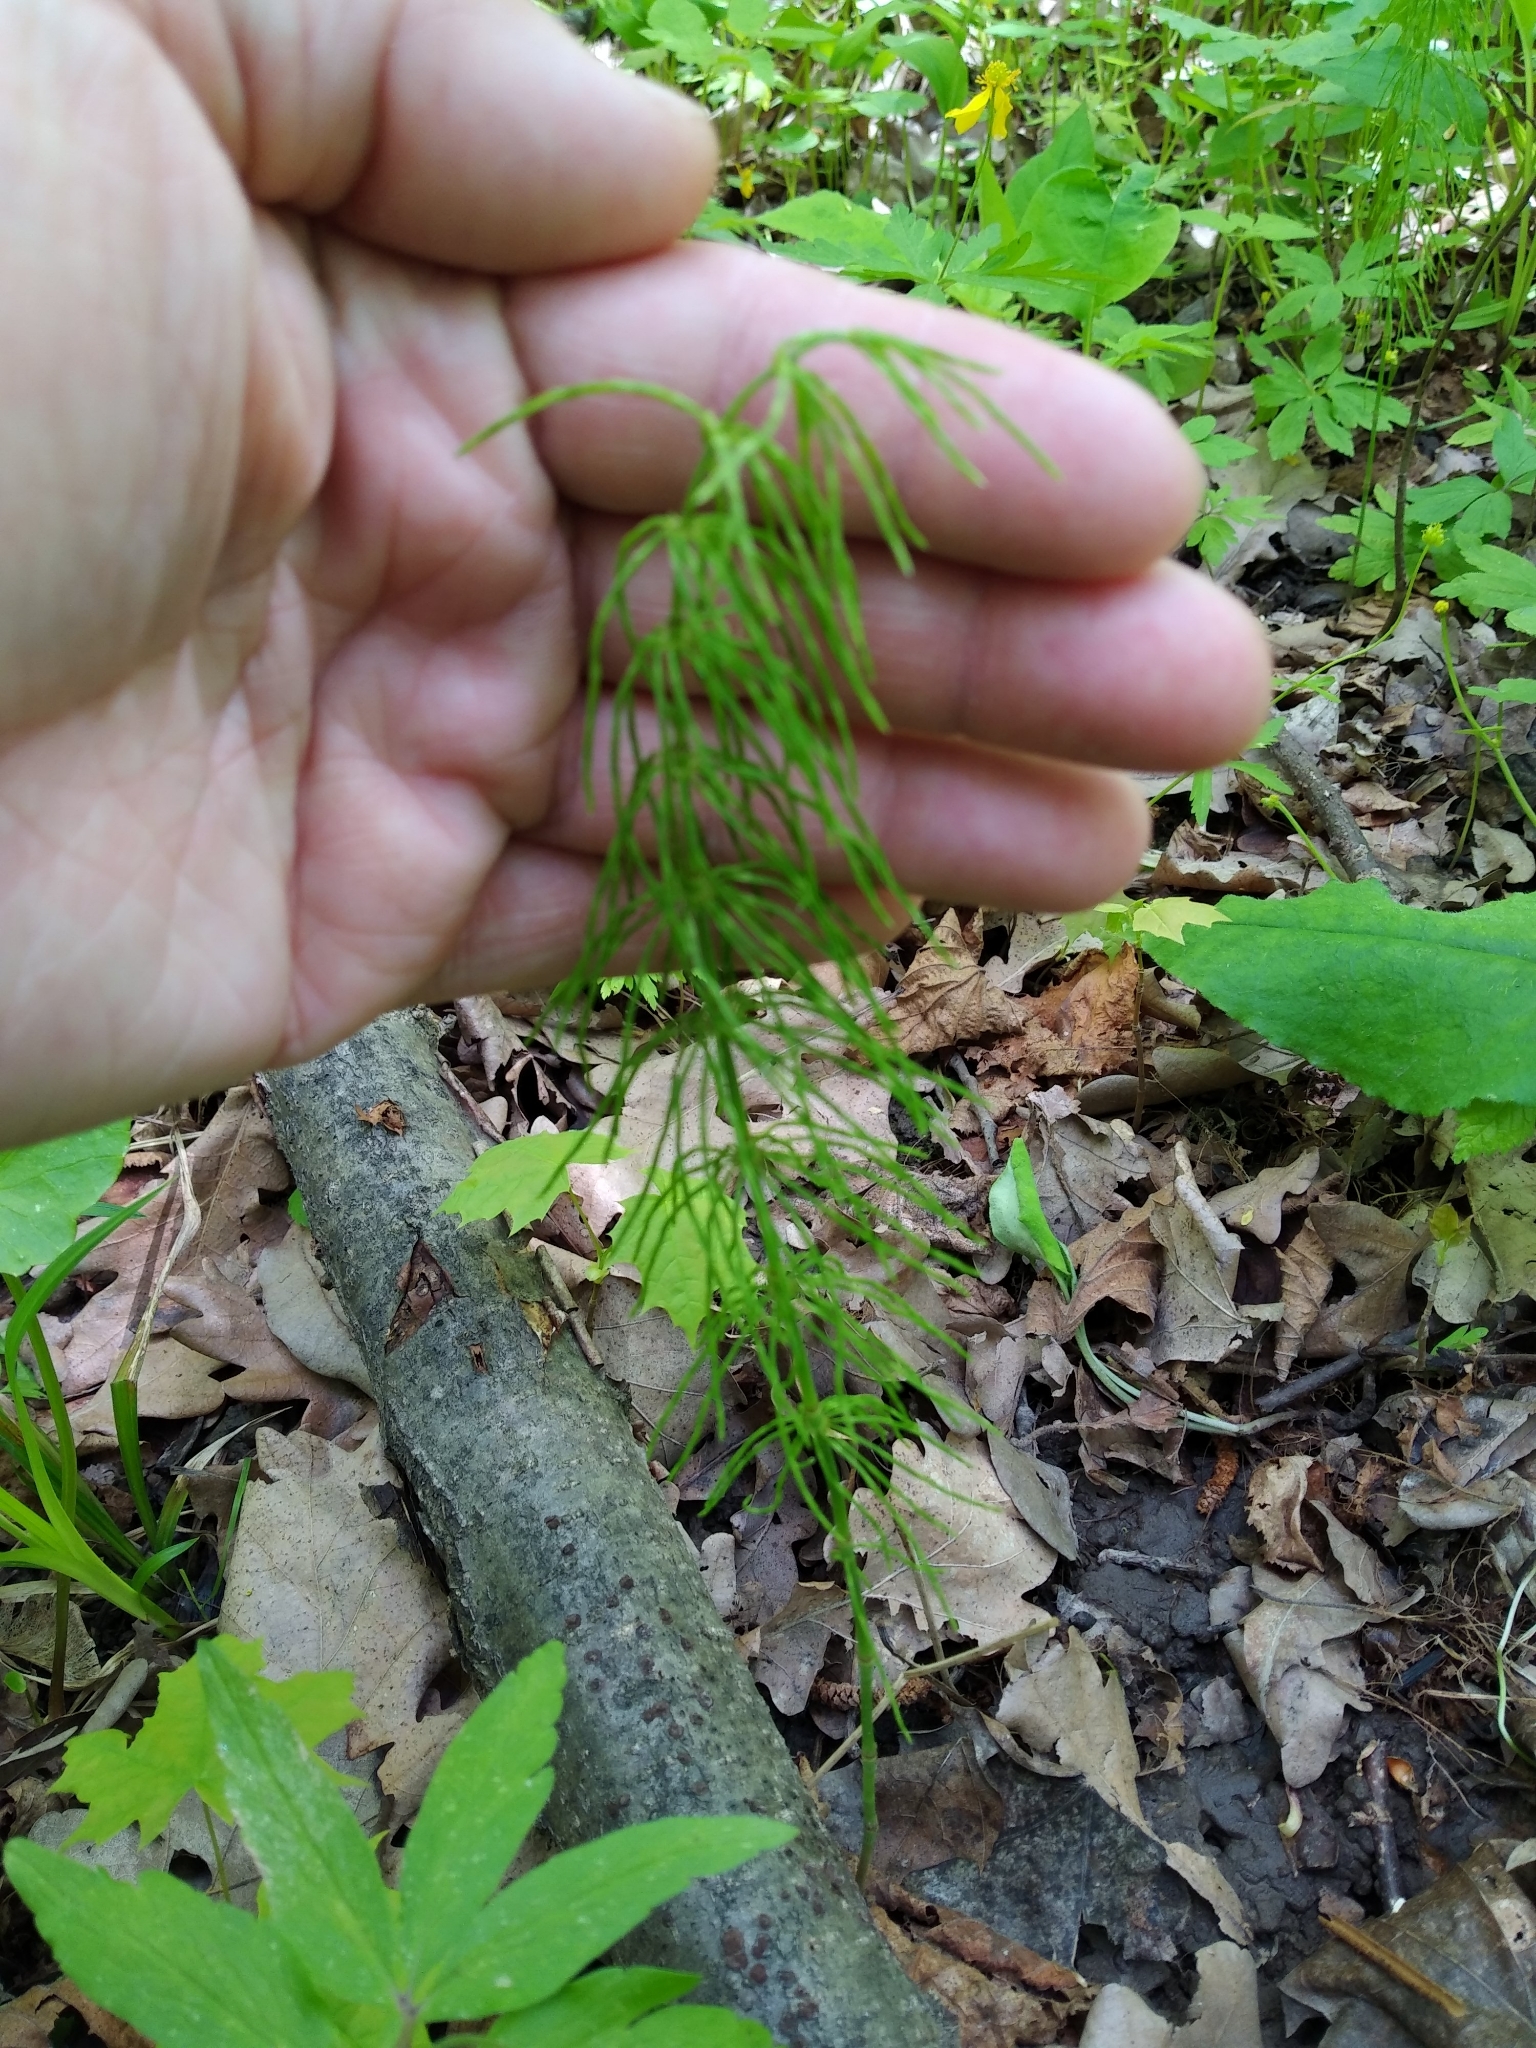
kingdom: Plantae
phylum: Tracheophyta
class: Polypodiopsida
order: Equisetales
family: Equisetaceae
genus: Equisetum
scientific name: Equisetum pratense
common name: Meadow horsetail
